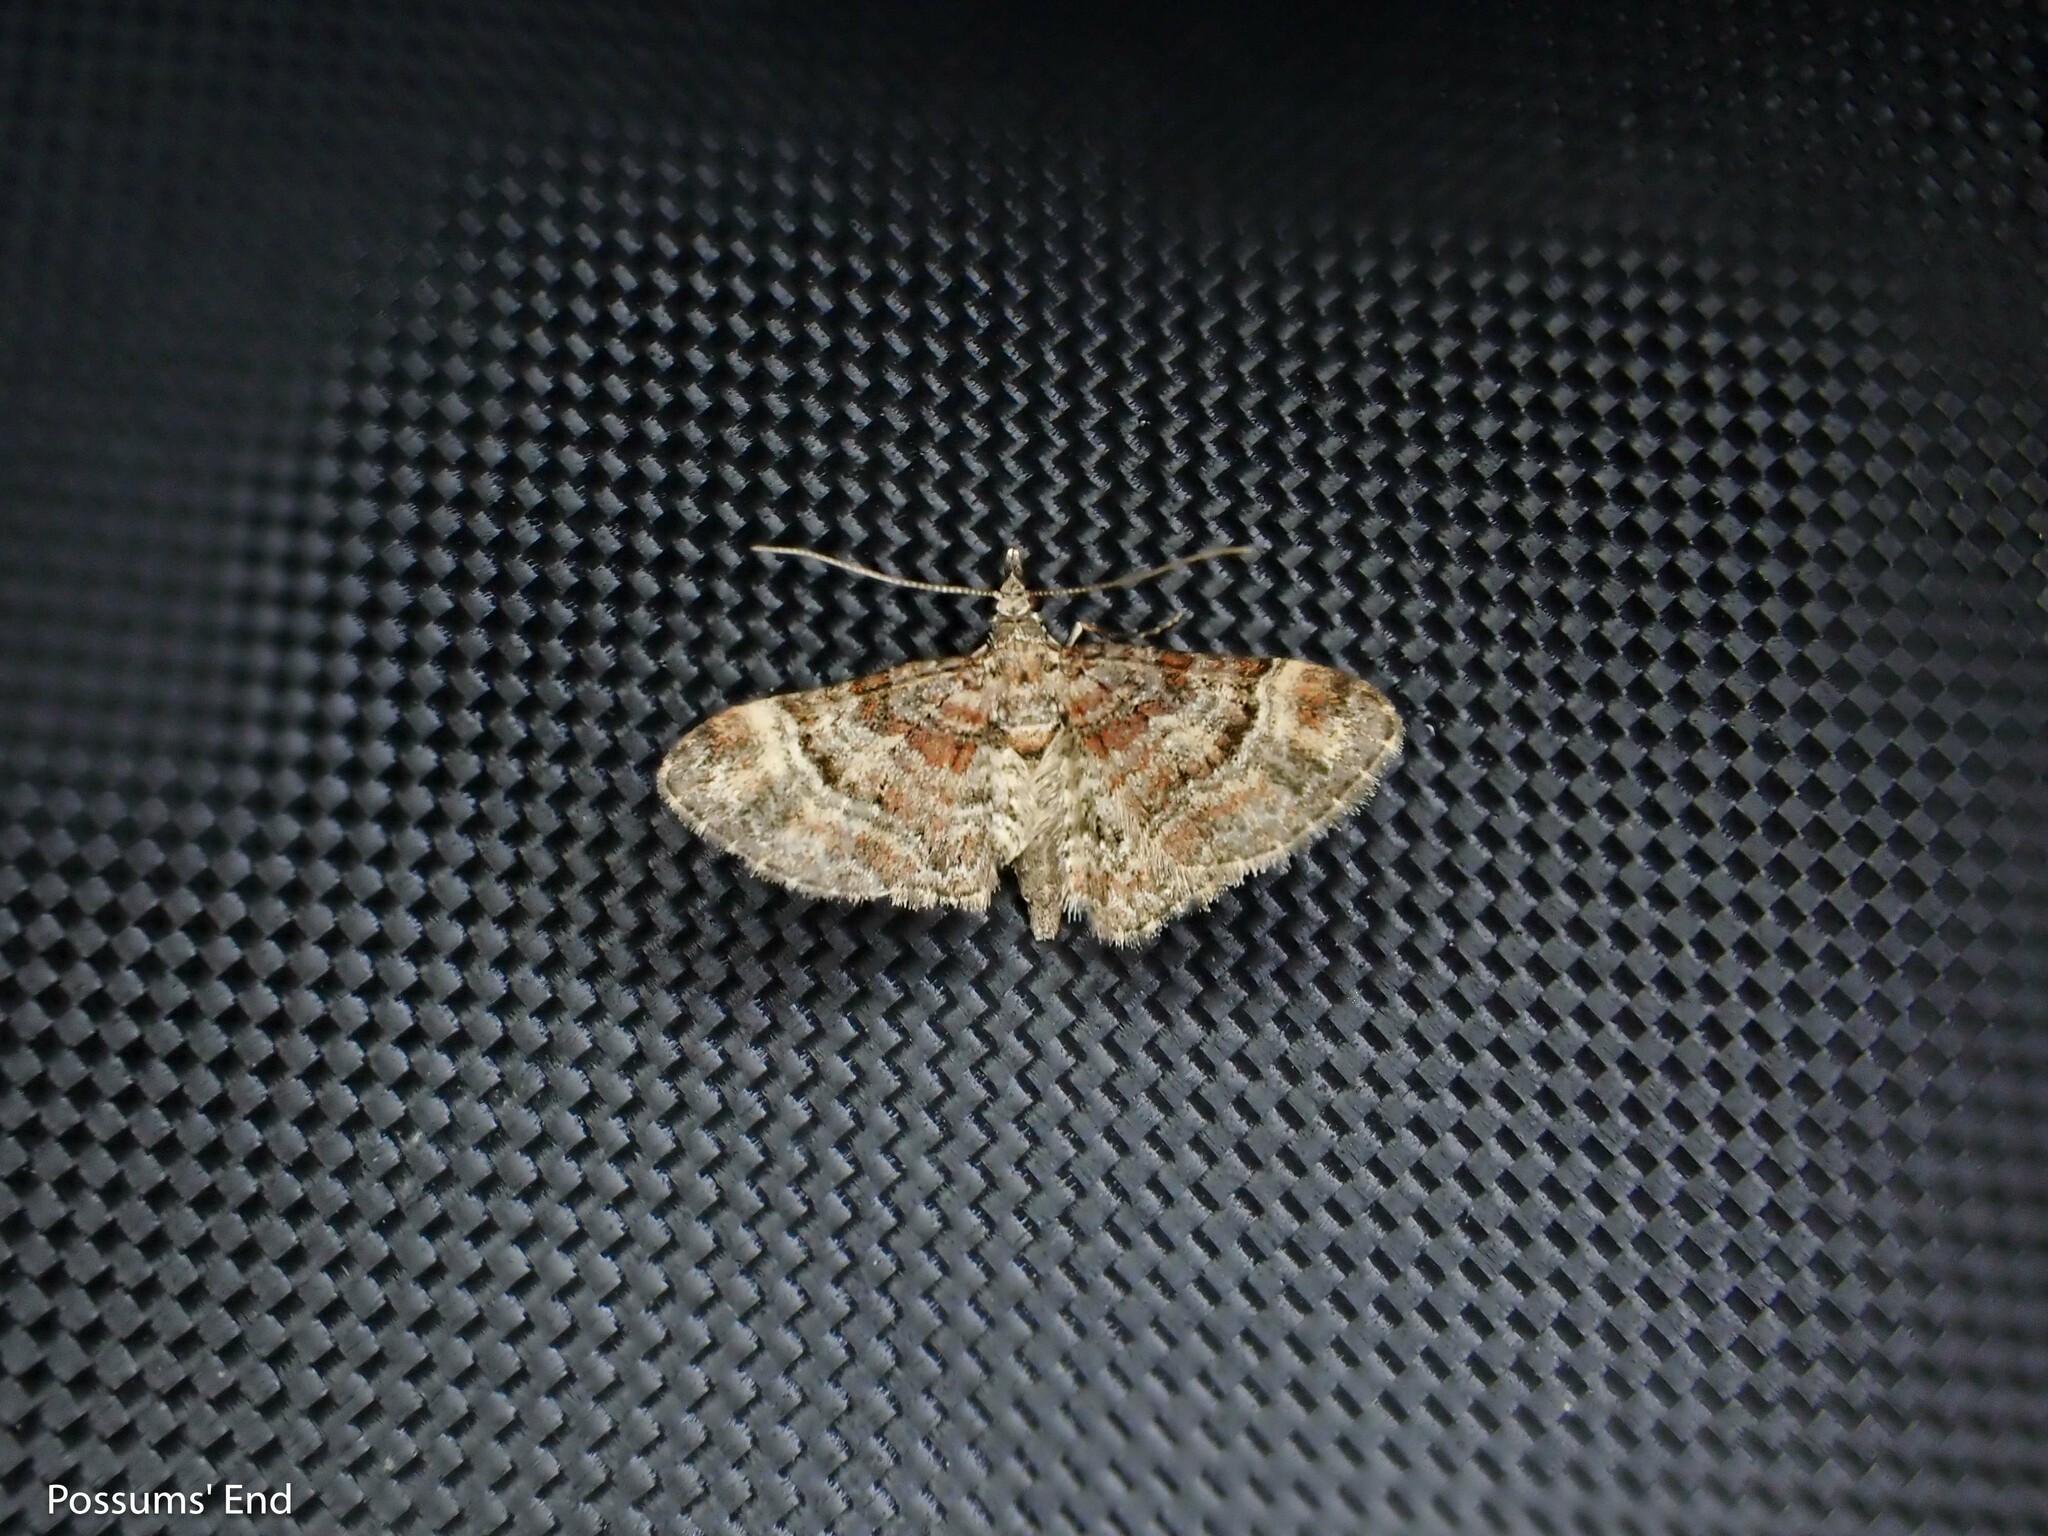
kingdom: Animalia
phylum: Arthropoda
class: Insecta
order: Lepidoptera
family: Geometridae
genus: Gymnoscelis
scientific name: Gymnoscelis rufifasciata
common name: Double-striped pug
